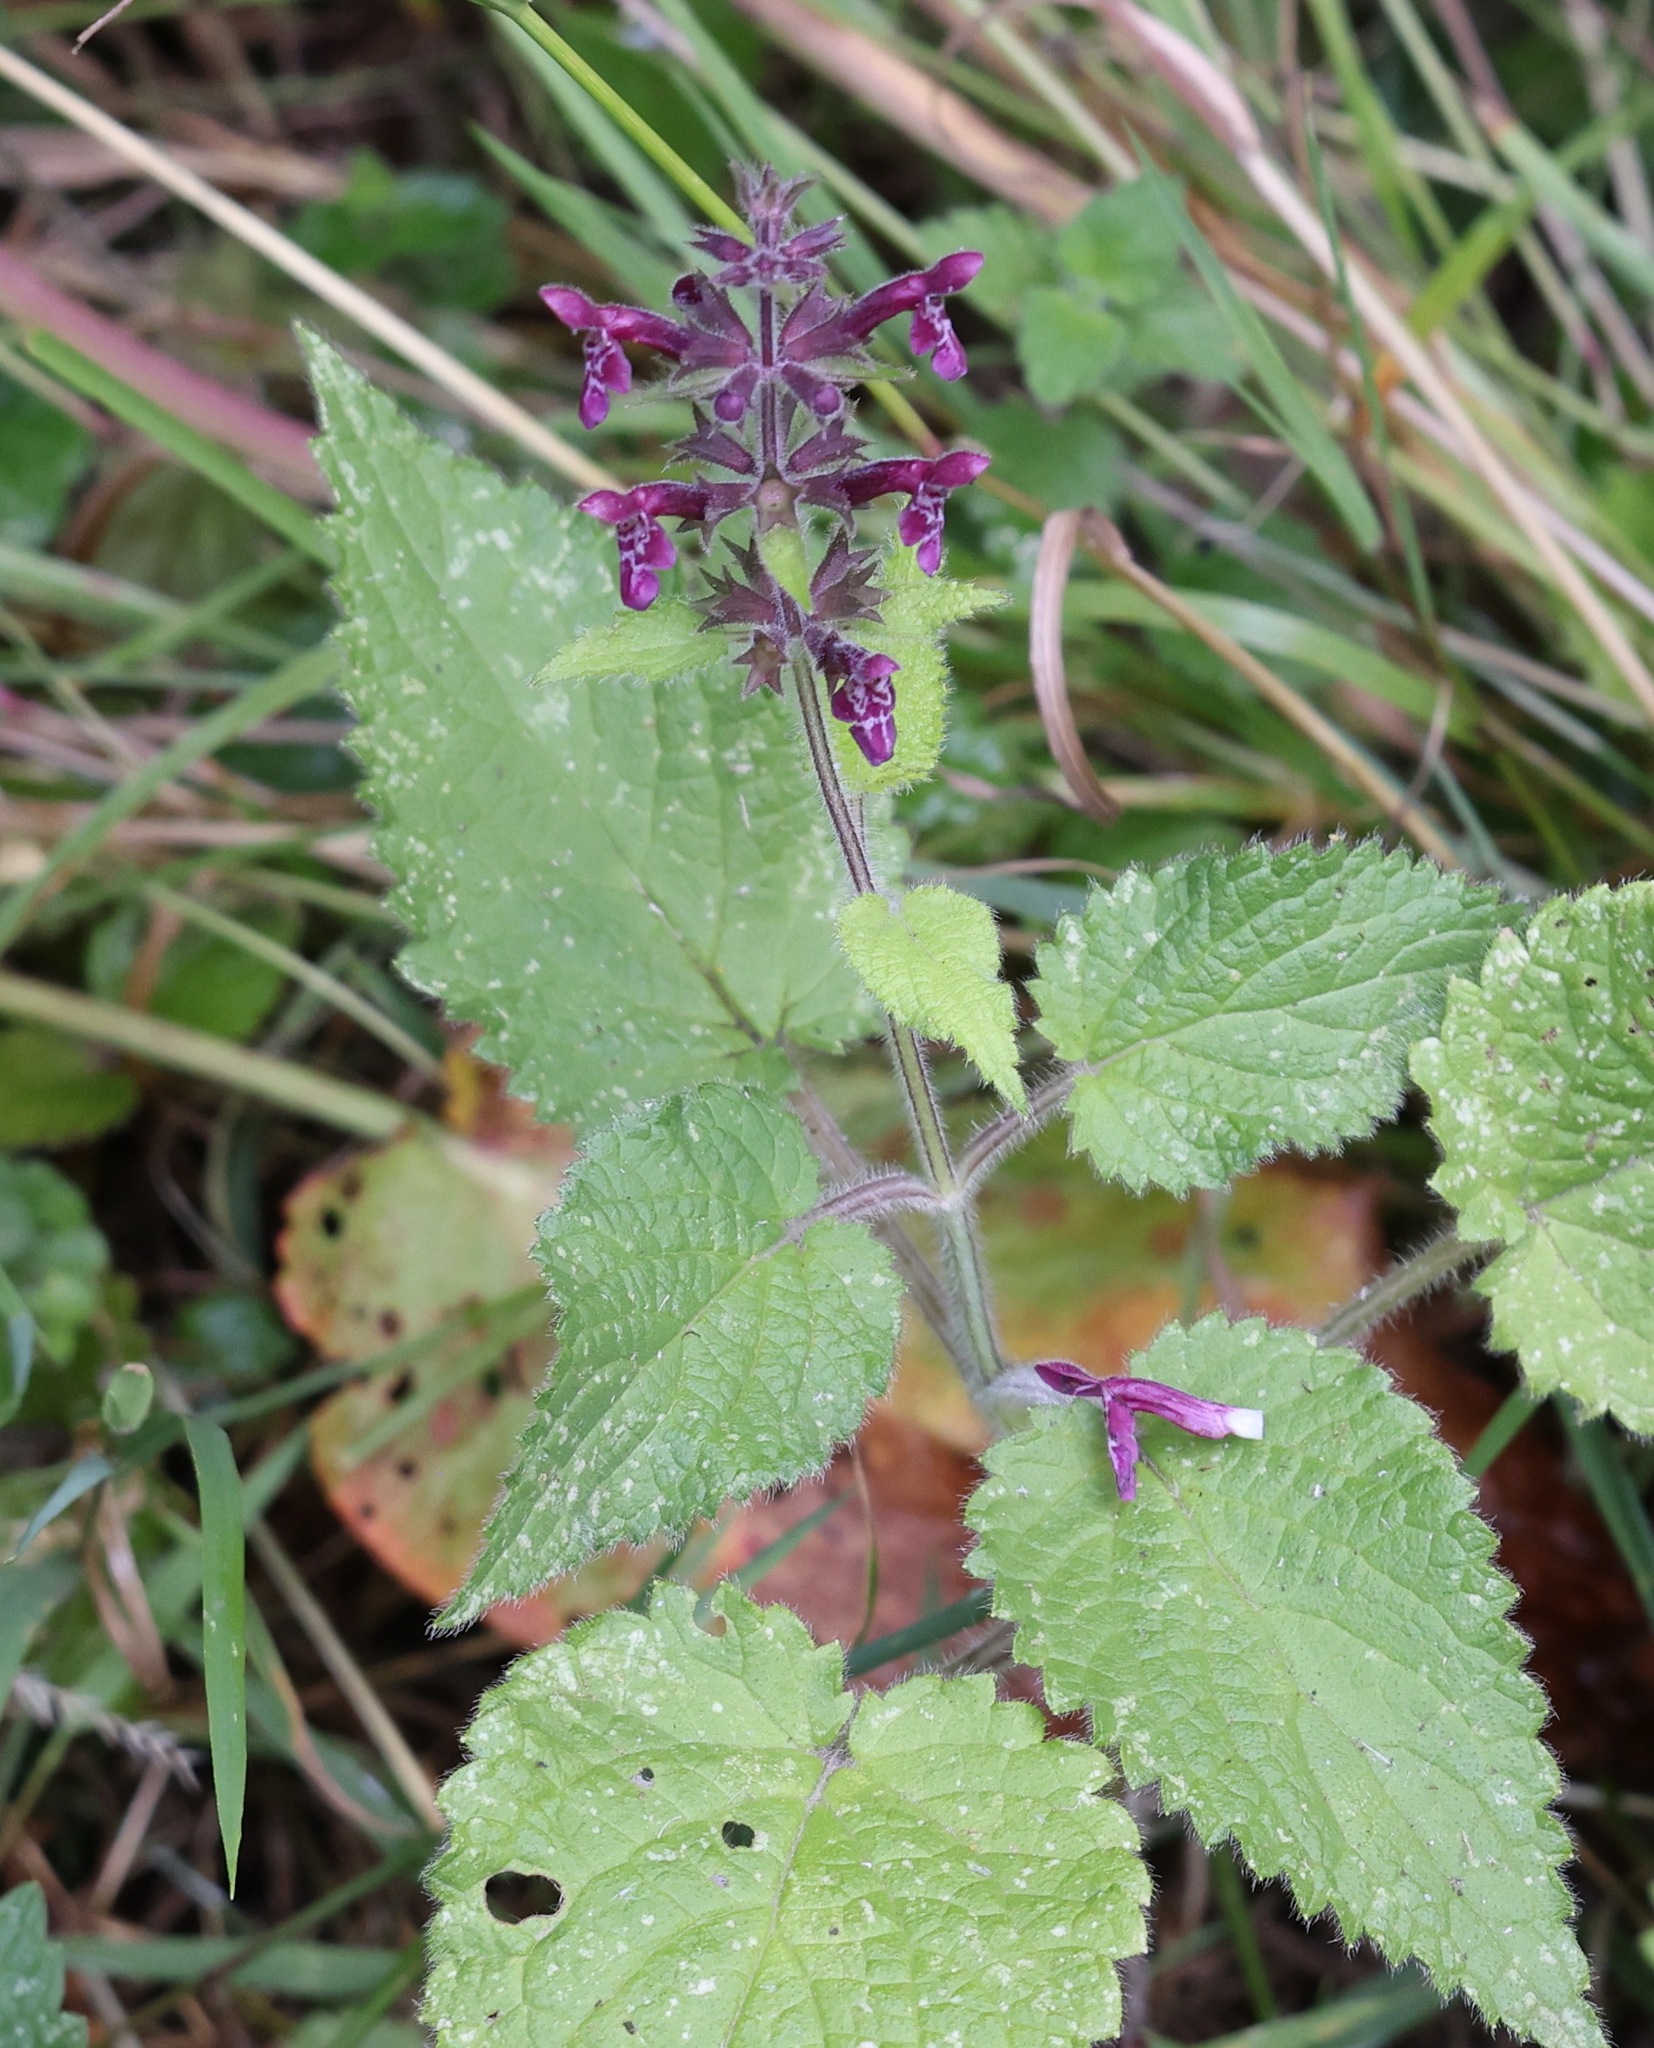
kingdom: Plantae
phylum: Tracheophyta
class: Magnoliopsida
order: Lamiales
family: Lamiaceae
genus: Stachys
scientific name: Stachys sylvatica
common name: Hedge woundwort
